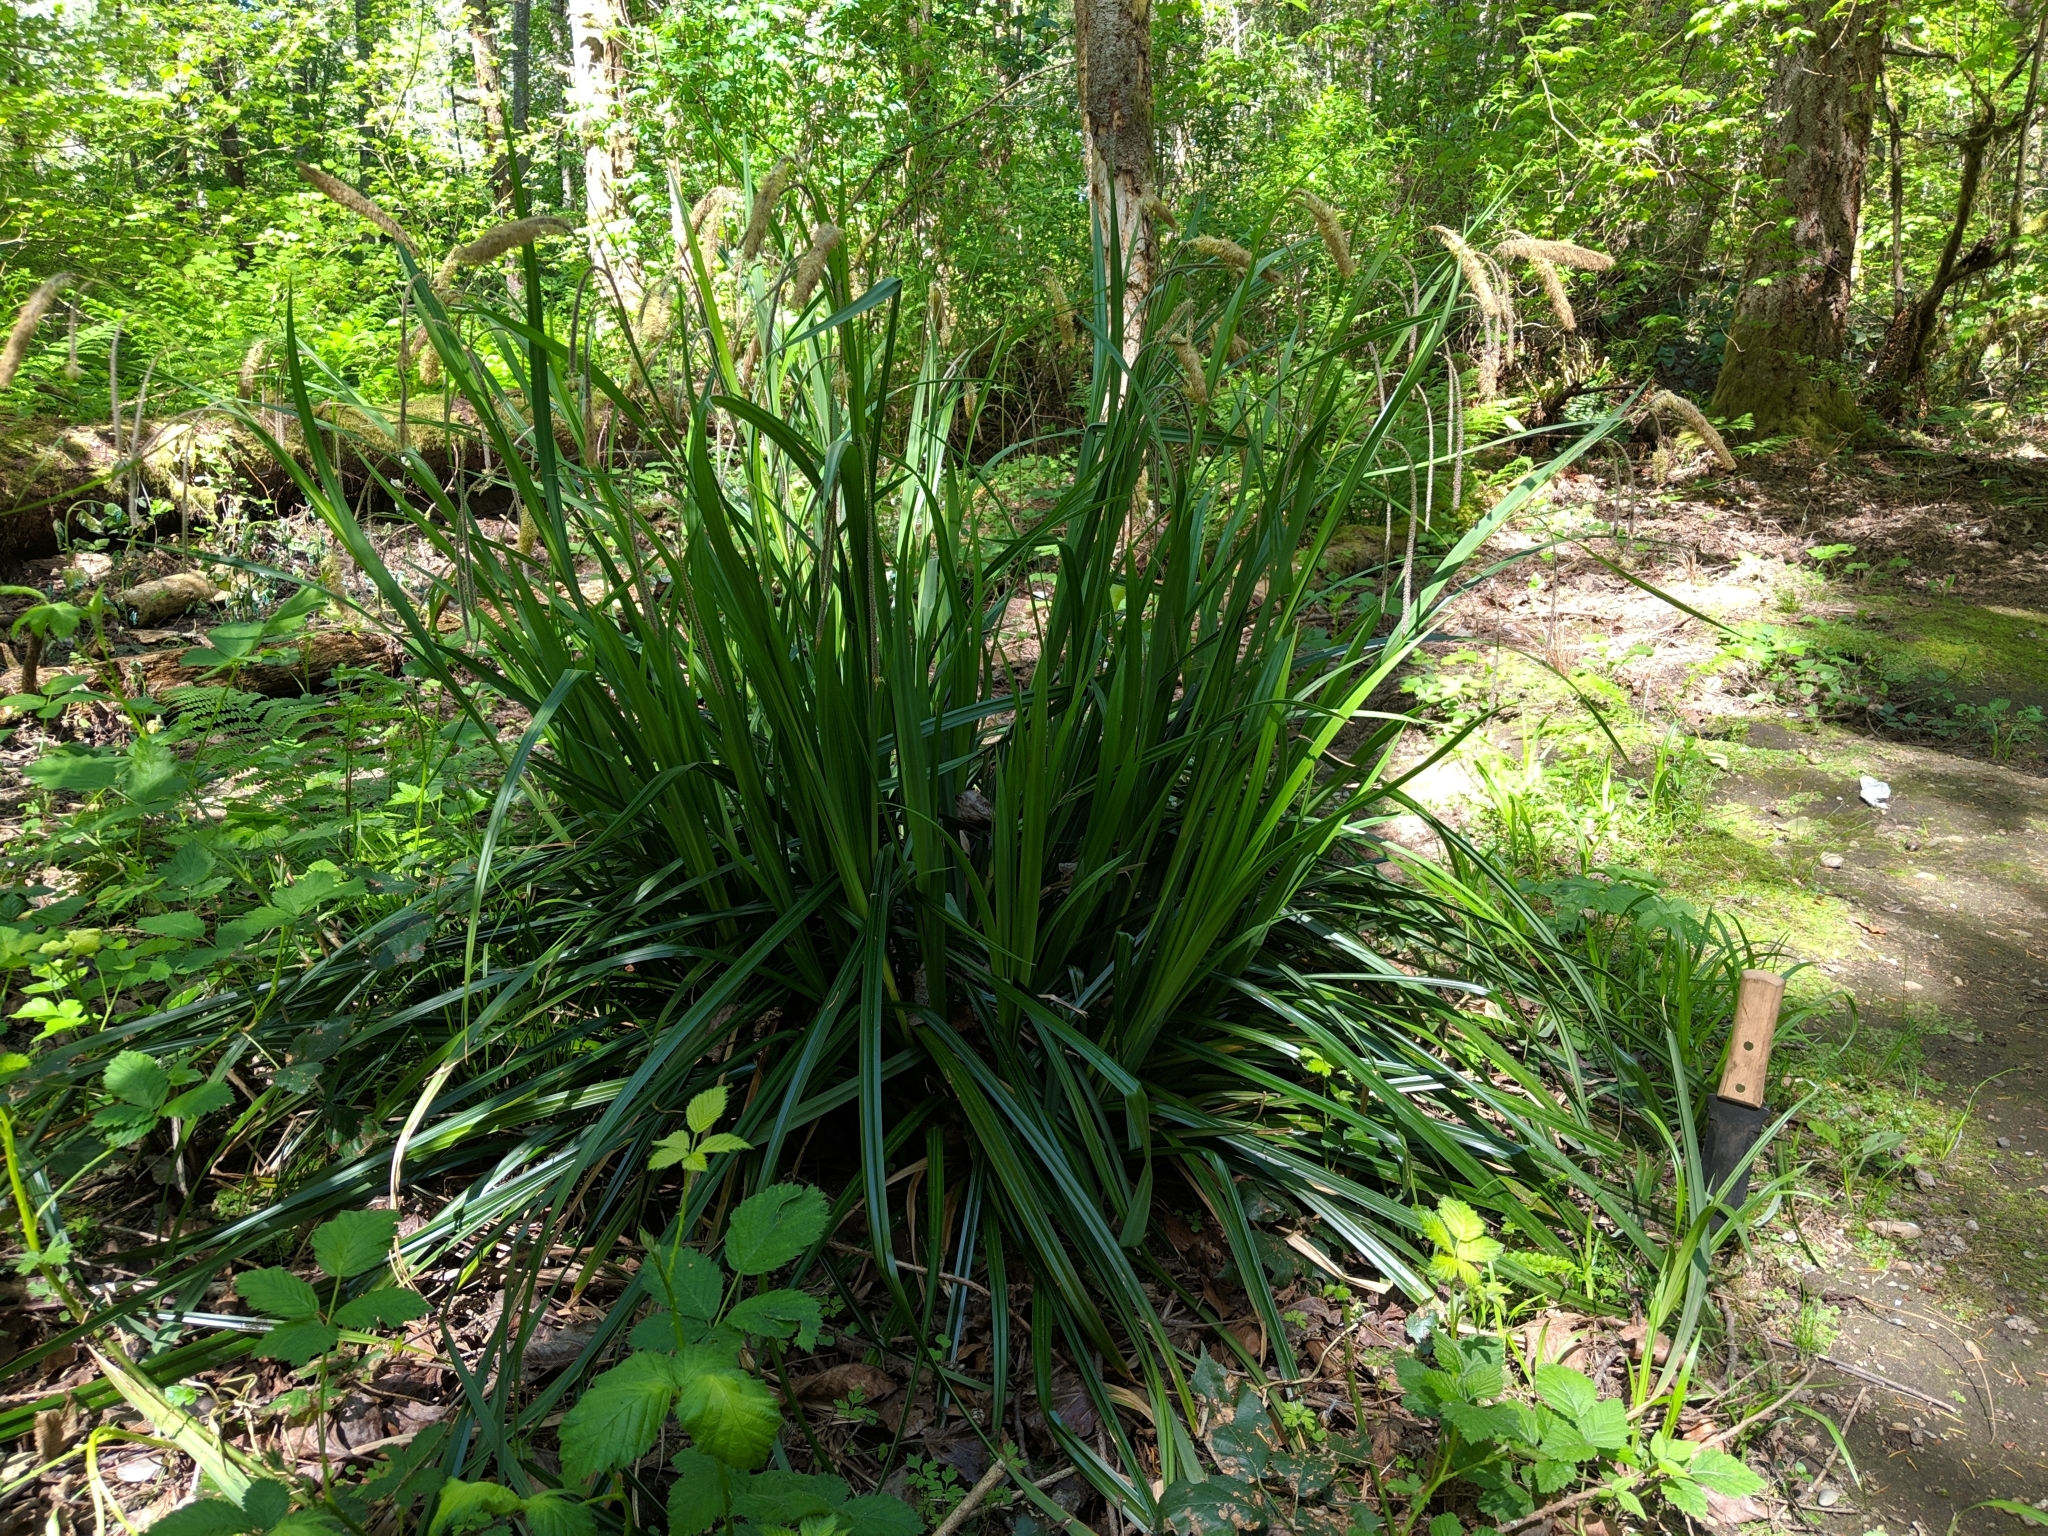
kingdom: Plantae
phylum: Tracheophyta
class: Liliopsida
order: Poales
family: Cyperaceae
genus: Carex
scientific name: Carex pendula
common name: Pendulous sedge
